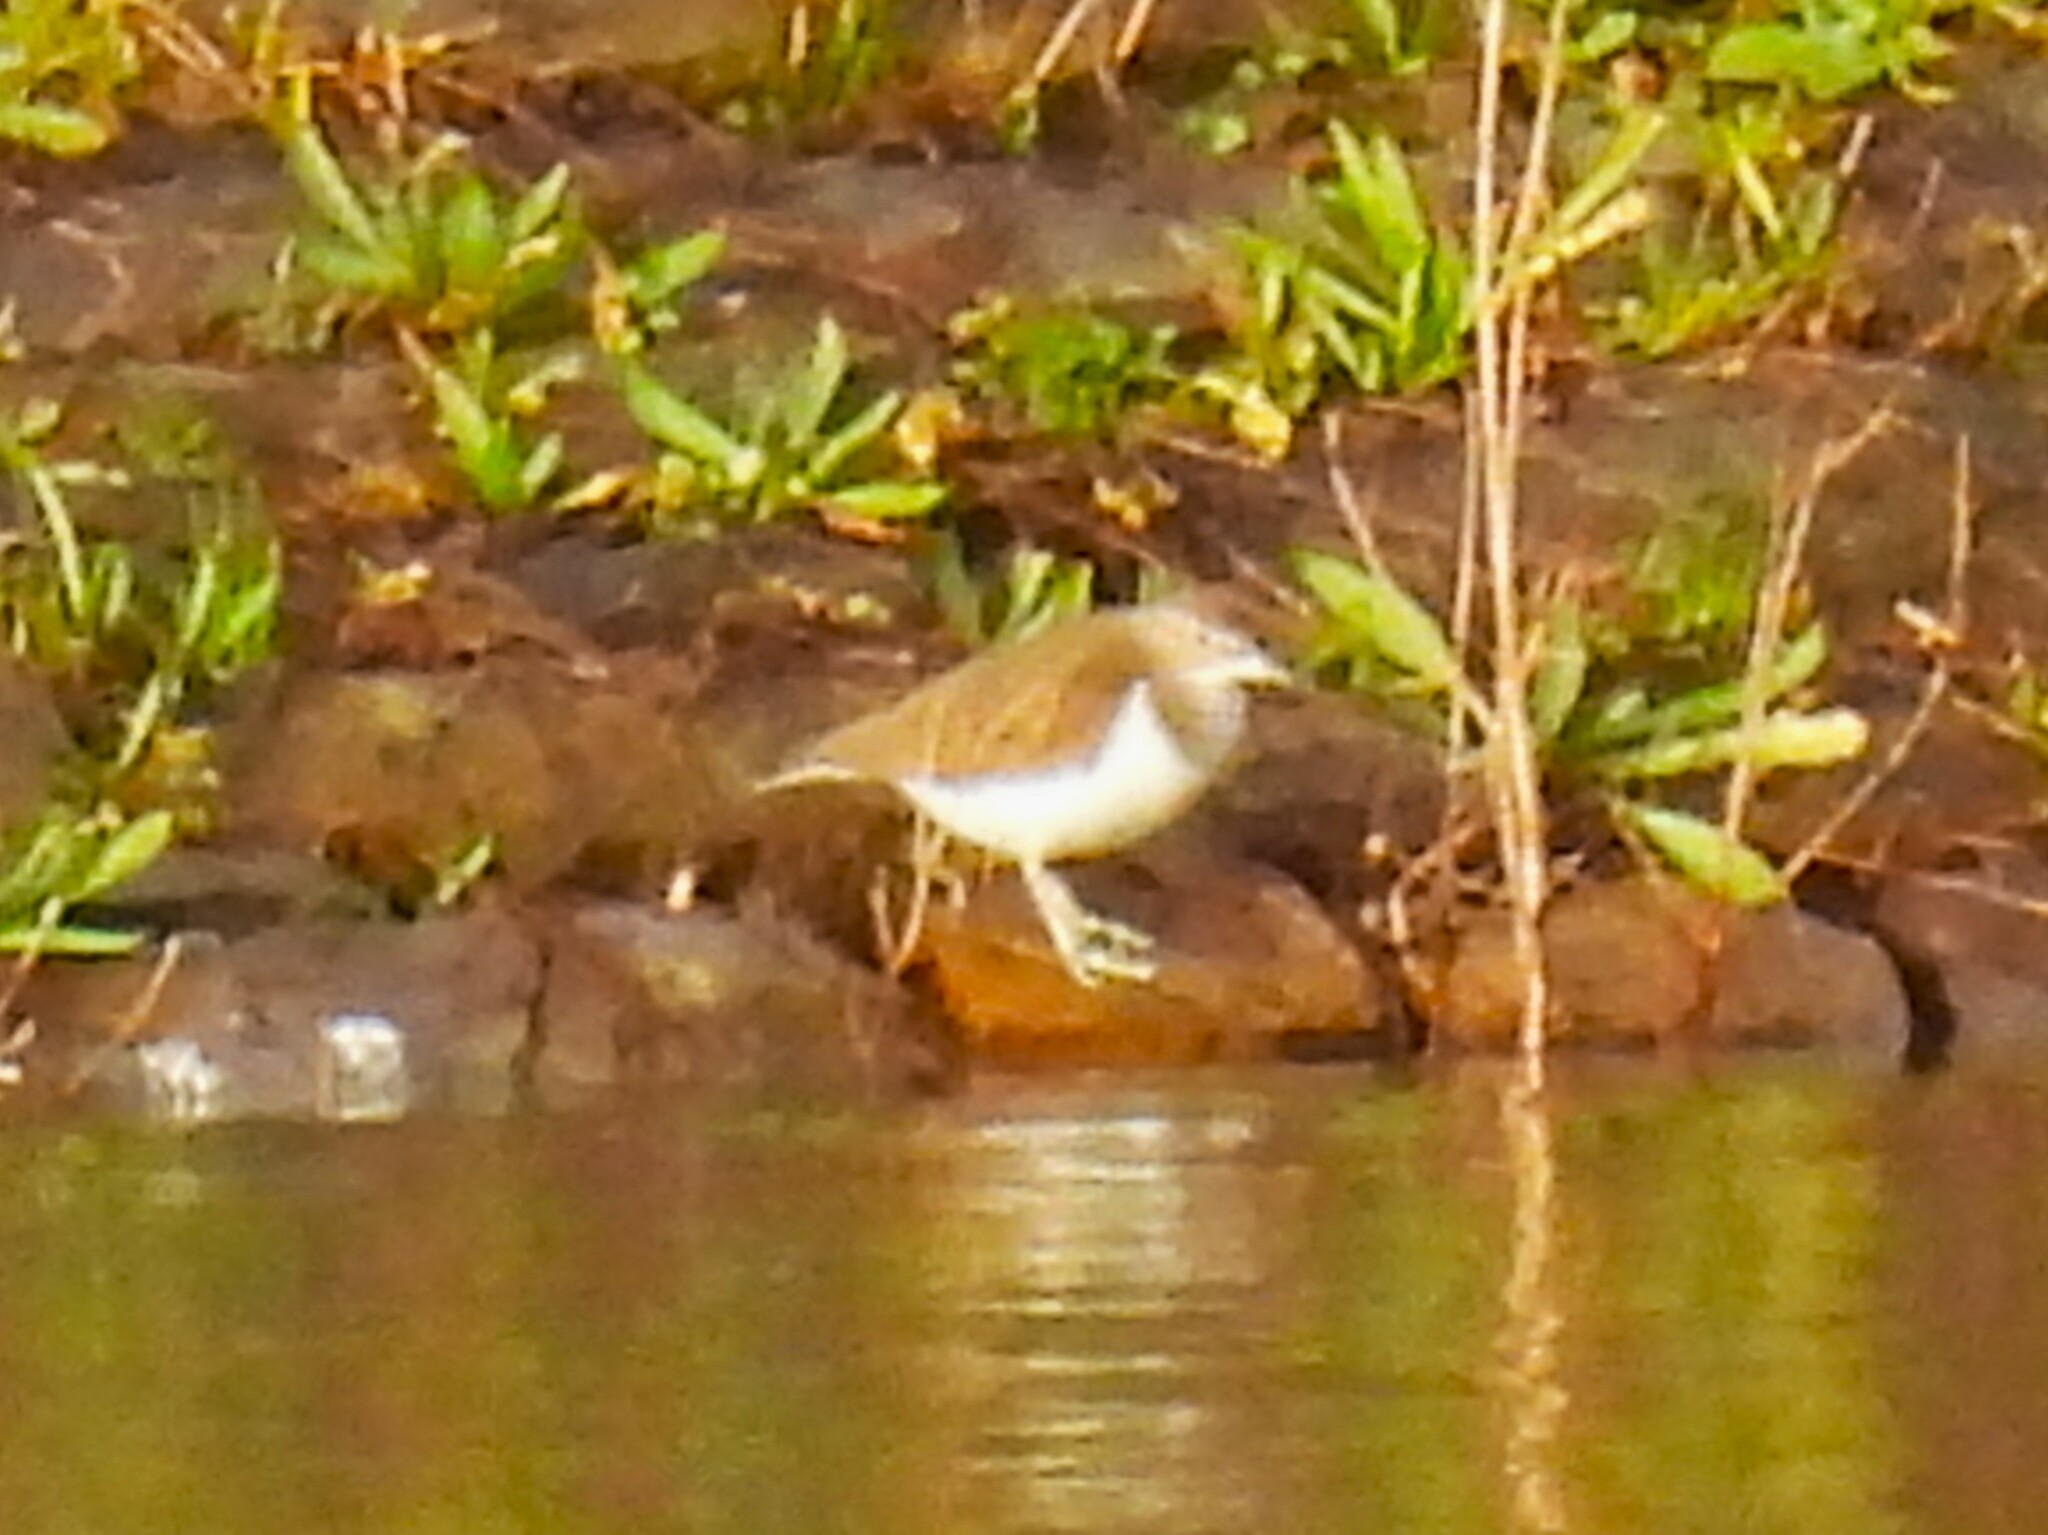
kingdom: Animalia
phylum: Chordata
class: Aves
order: Charadriiformes
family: Scolopacidae
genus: Actitis
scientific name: Actitis hypoleucos
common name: Common sandpiper
